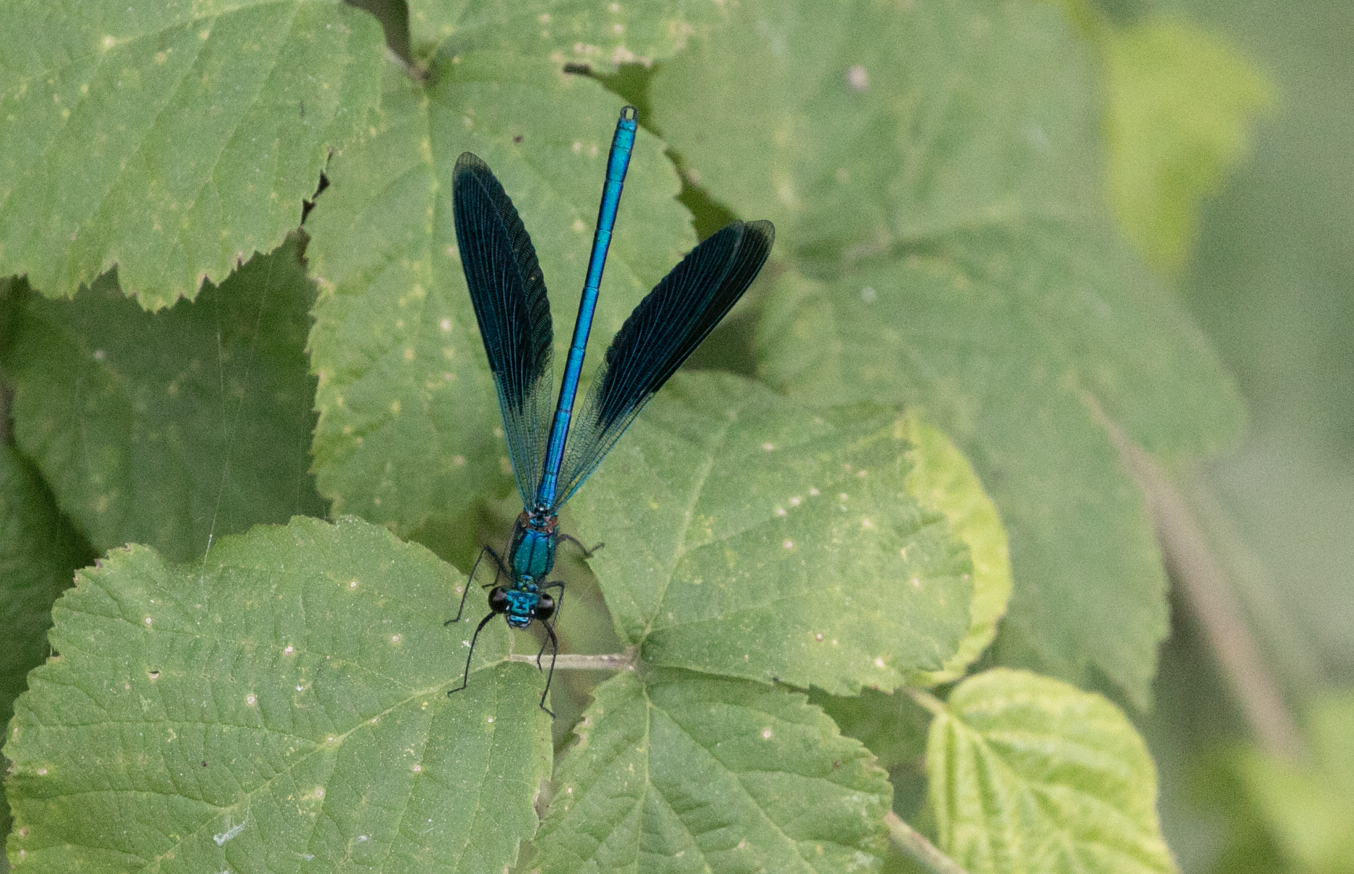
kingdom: Animalia
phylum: Arthropoda
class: Insecta
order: Odonata
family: Calopterygidae
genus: Calopteryx
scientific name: Calopteryx splendens
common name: Banded demoiselle
